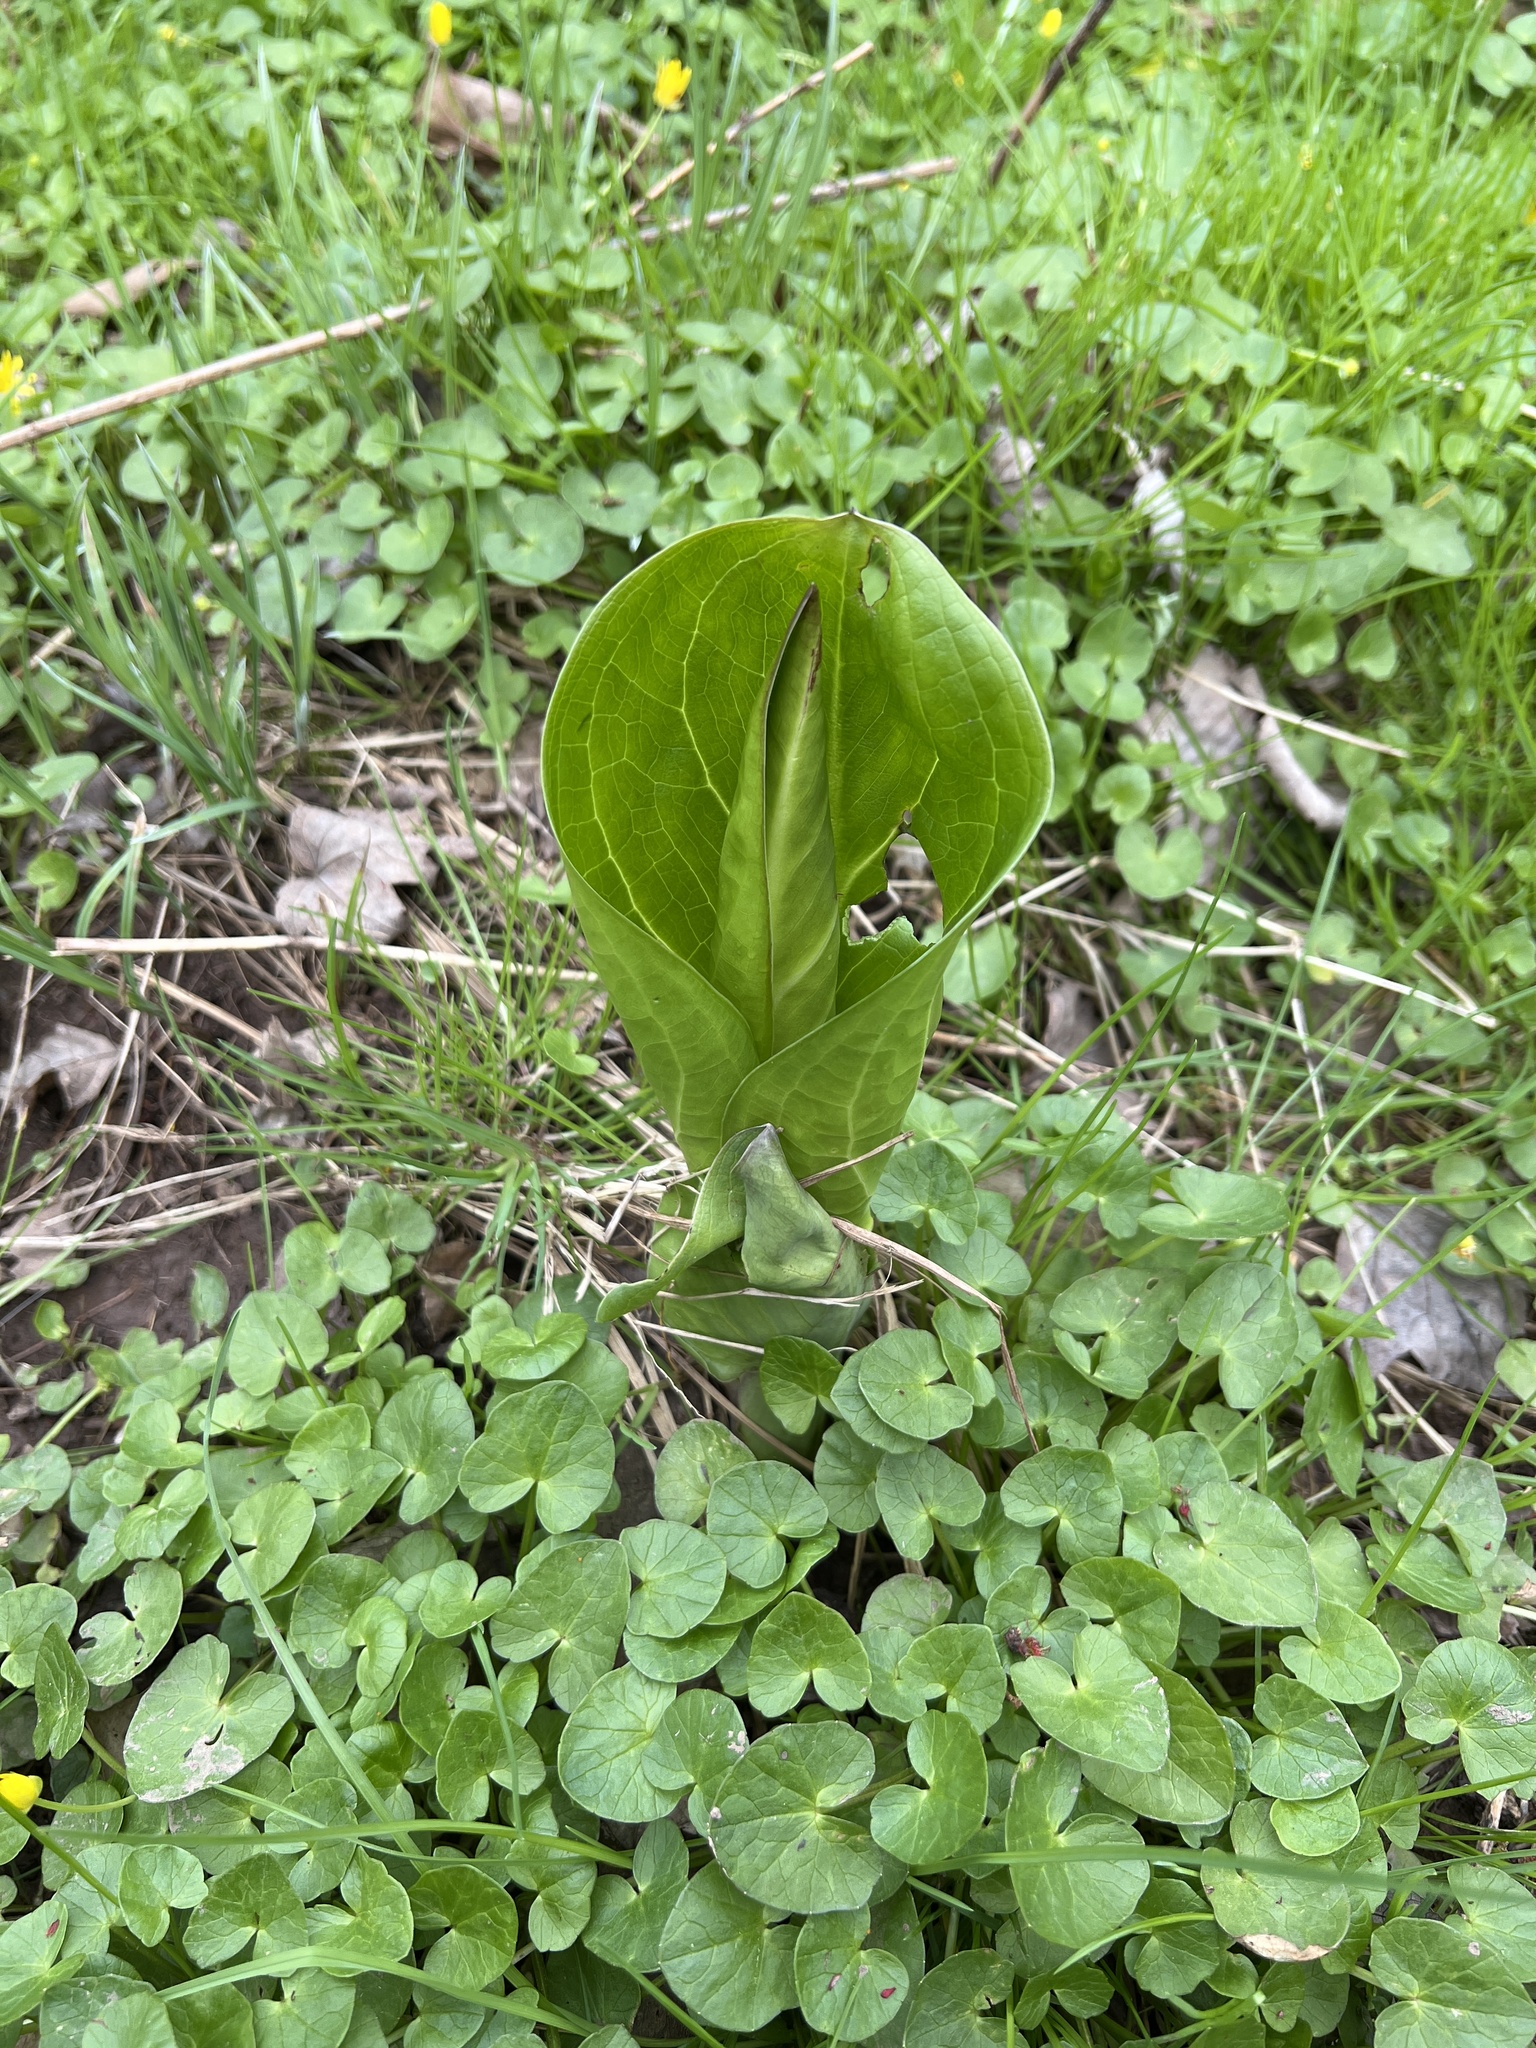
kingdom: Plantae
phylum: Tracheophyta
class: Liliopsida
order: Alismatales
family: Araceae
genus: Symplocarpus
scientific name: Symplocarpus foetidus
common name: Eastern skunk cabbage
